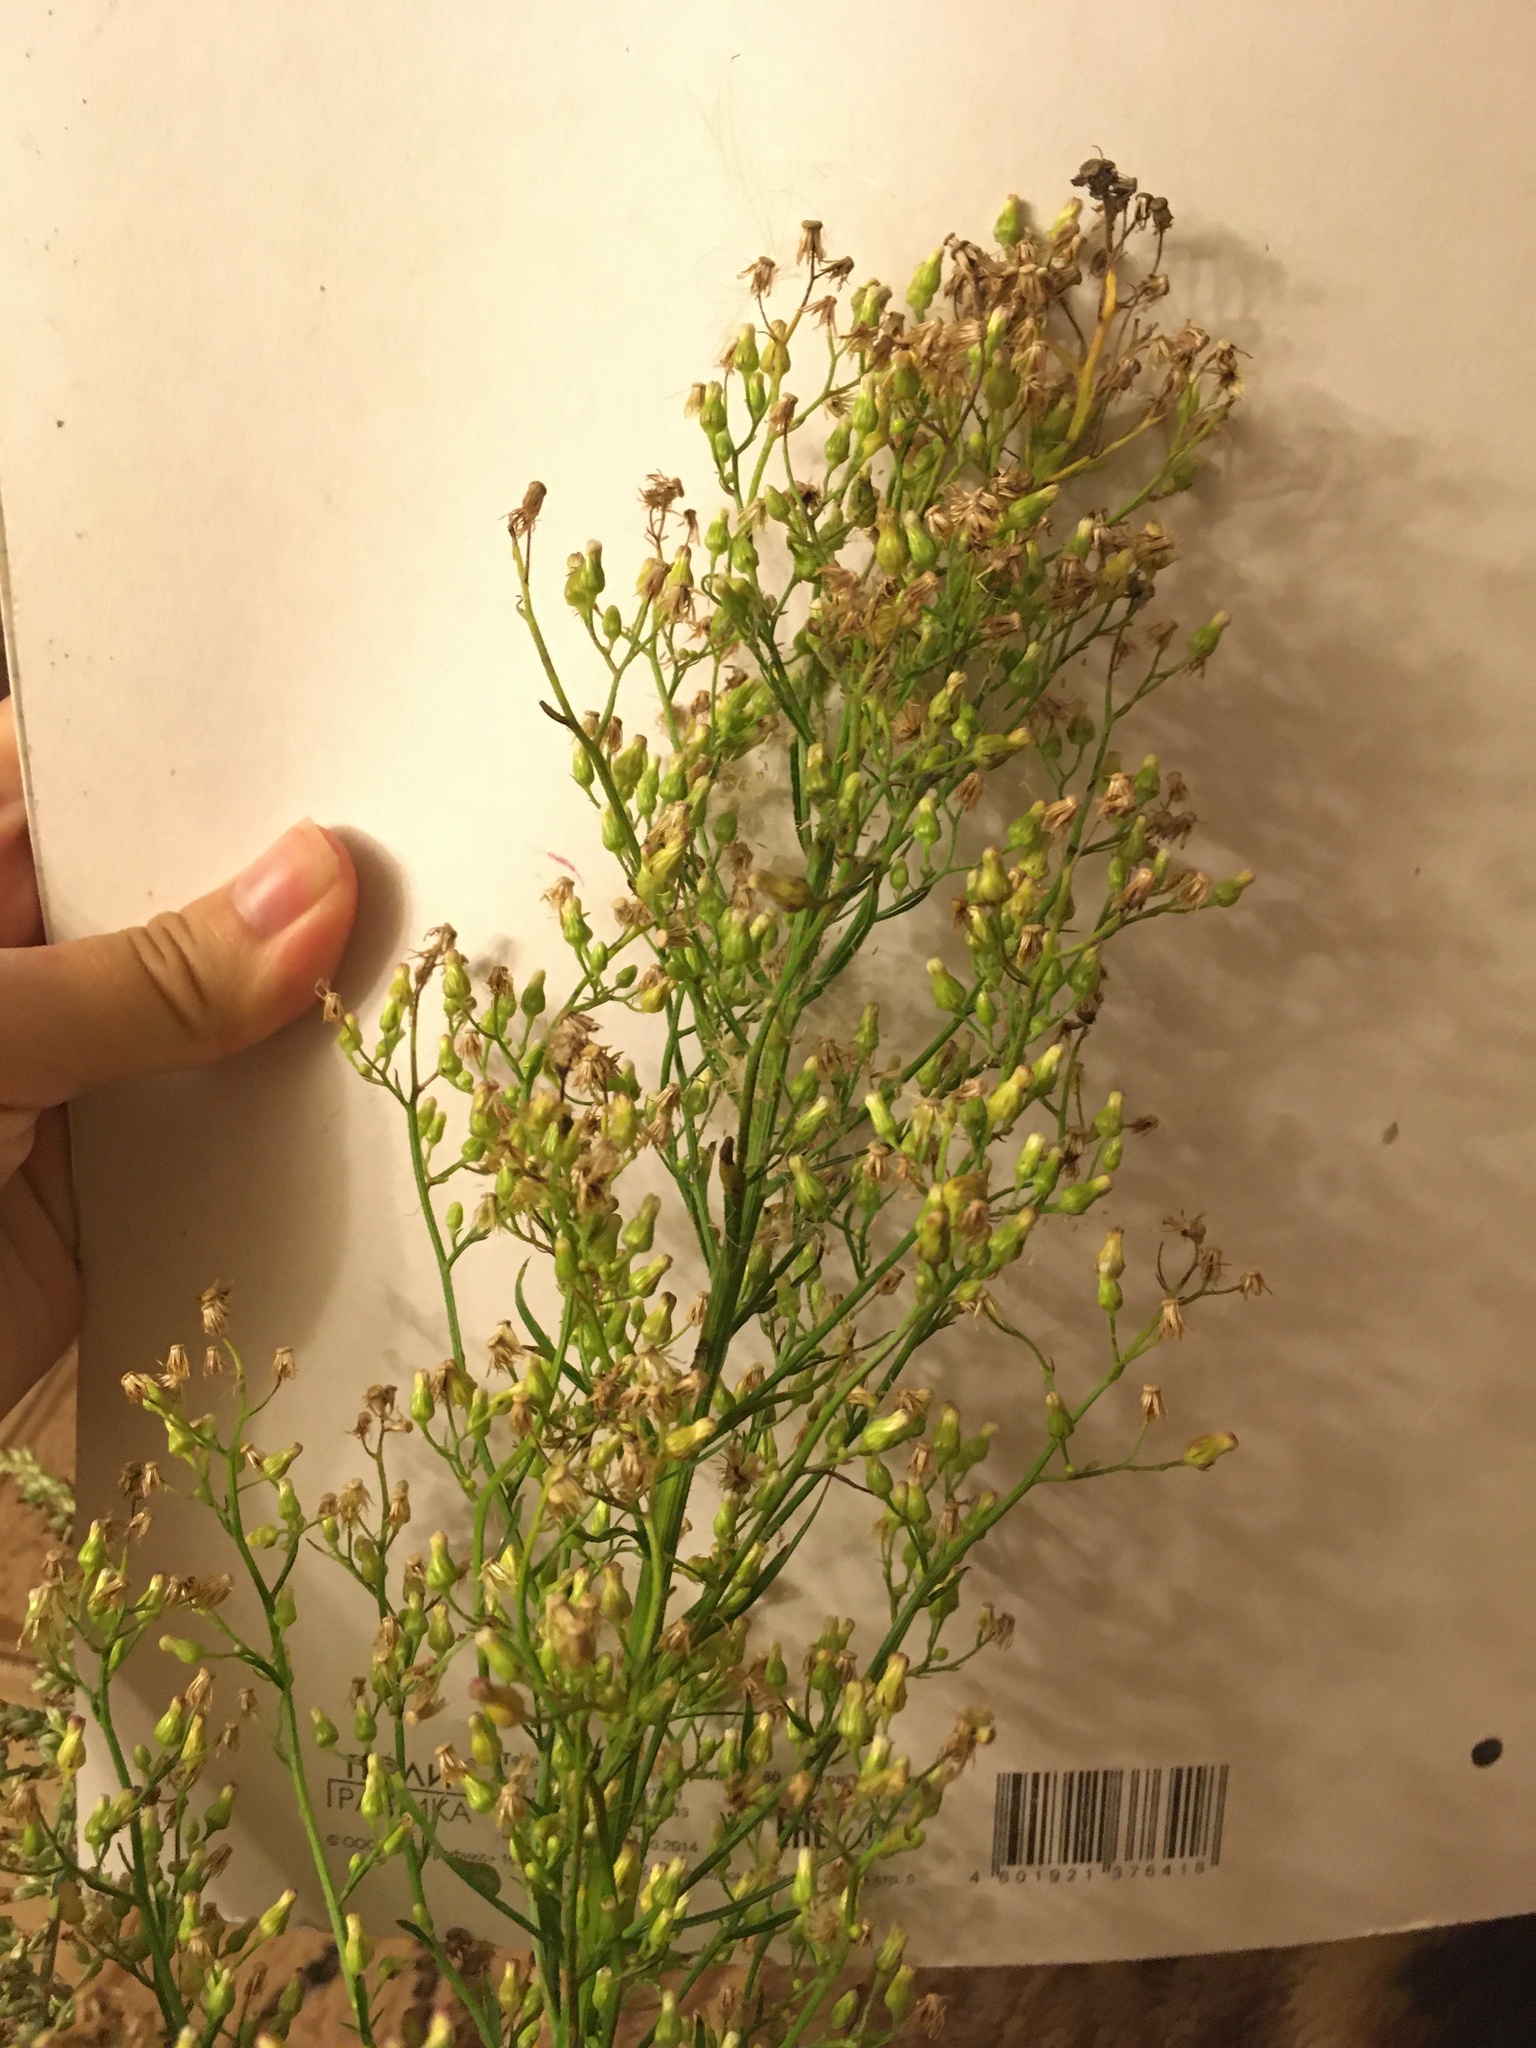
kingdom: Plantae
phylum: Tracheophyta
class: Magnoliopsida
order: Asterales
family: Asteraceae
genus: Erigeron
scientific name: Erigeron canadensis
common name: Canadian fleabane
